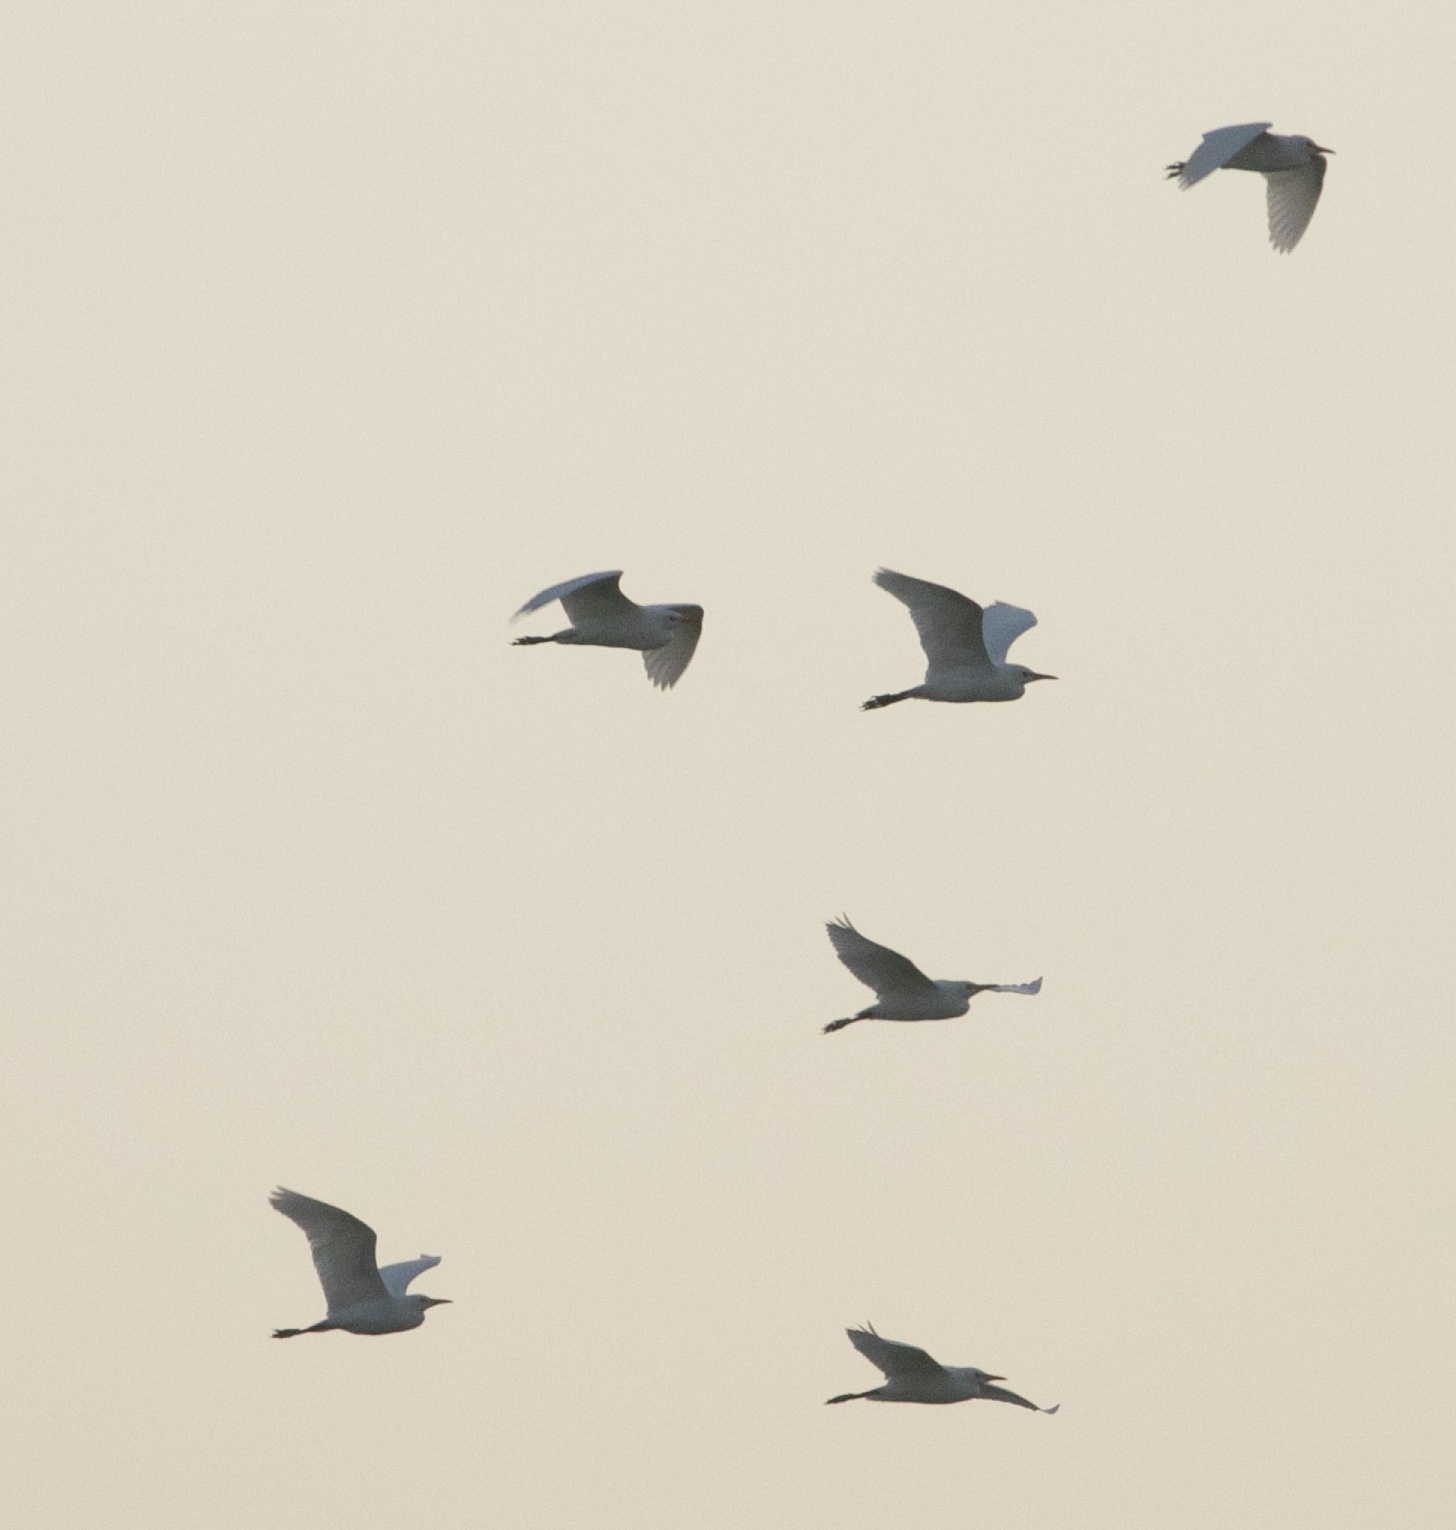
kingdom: Animalia
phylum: Chordata
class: Aves
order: Pelecaniformes
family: Ardeidae
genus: Bubulcus
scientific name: Bubulcus ibis
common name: Cattle egret
